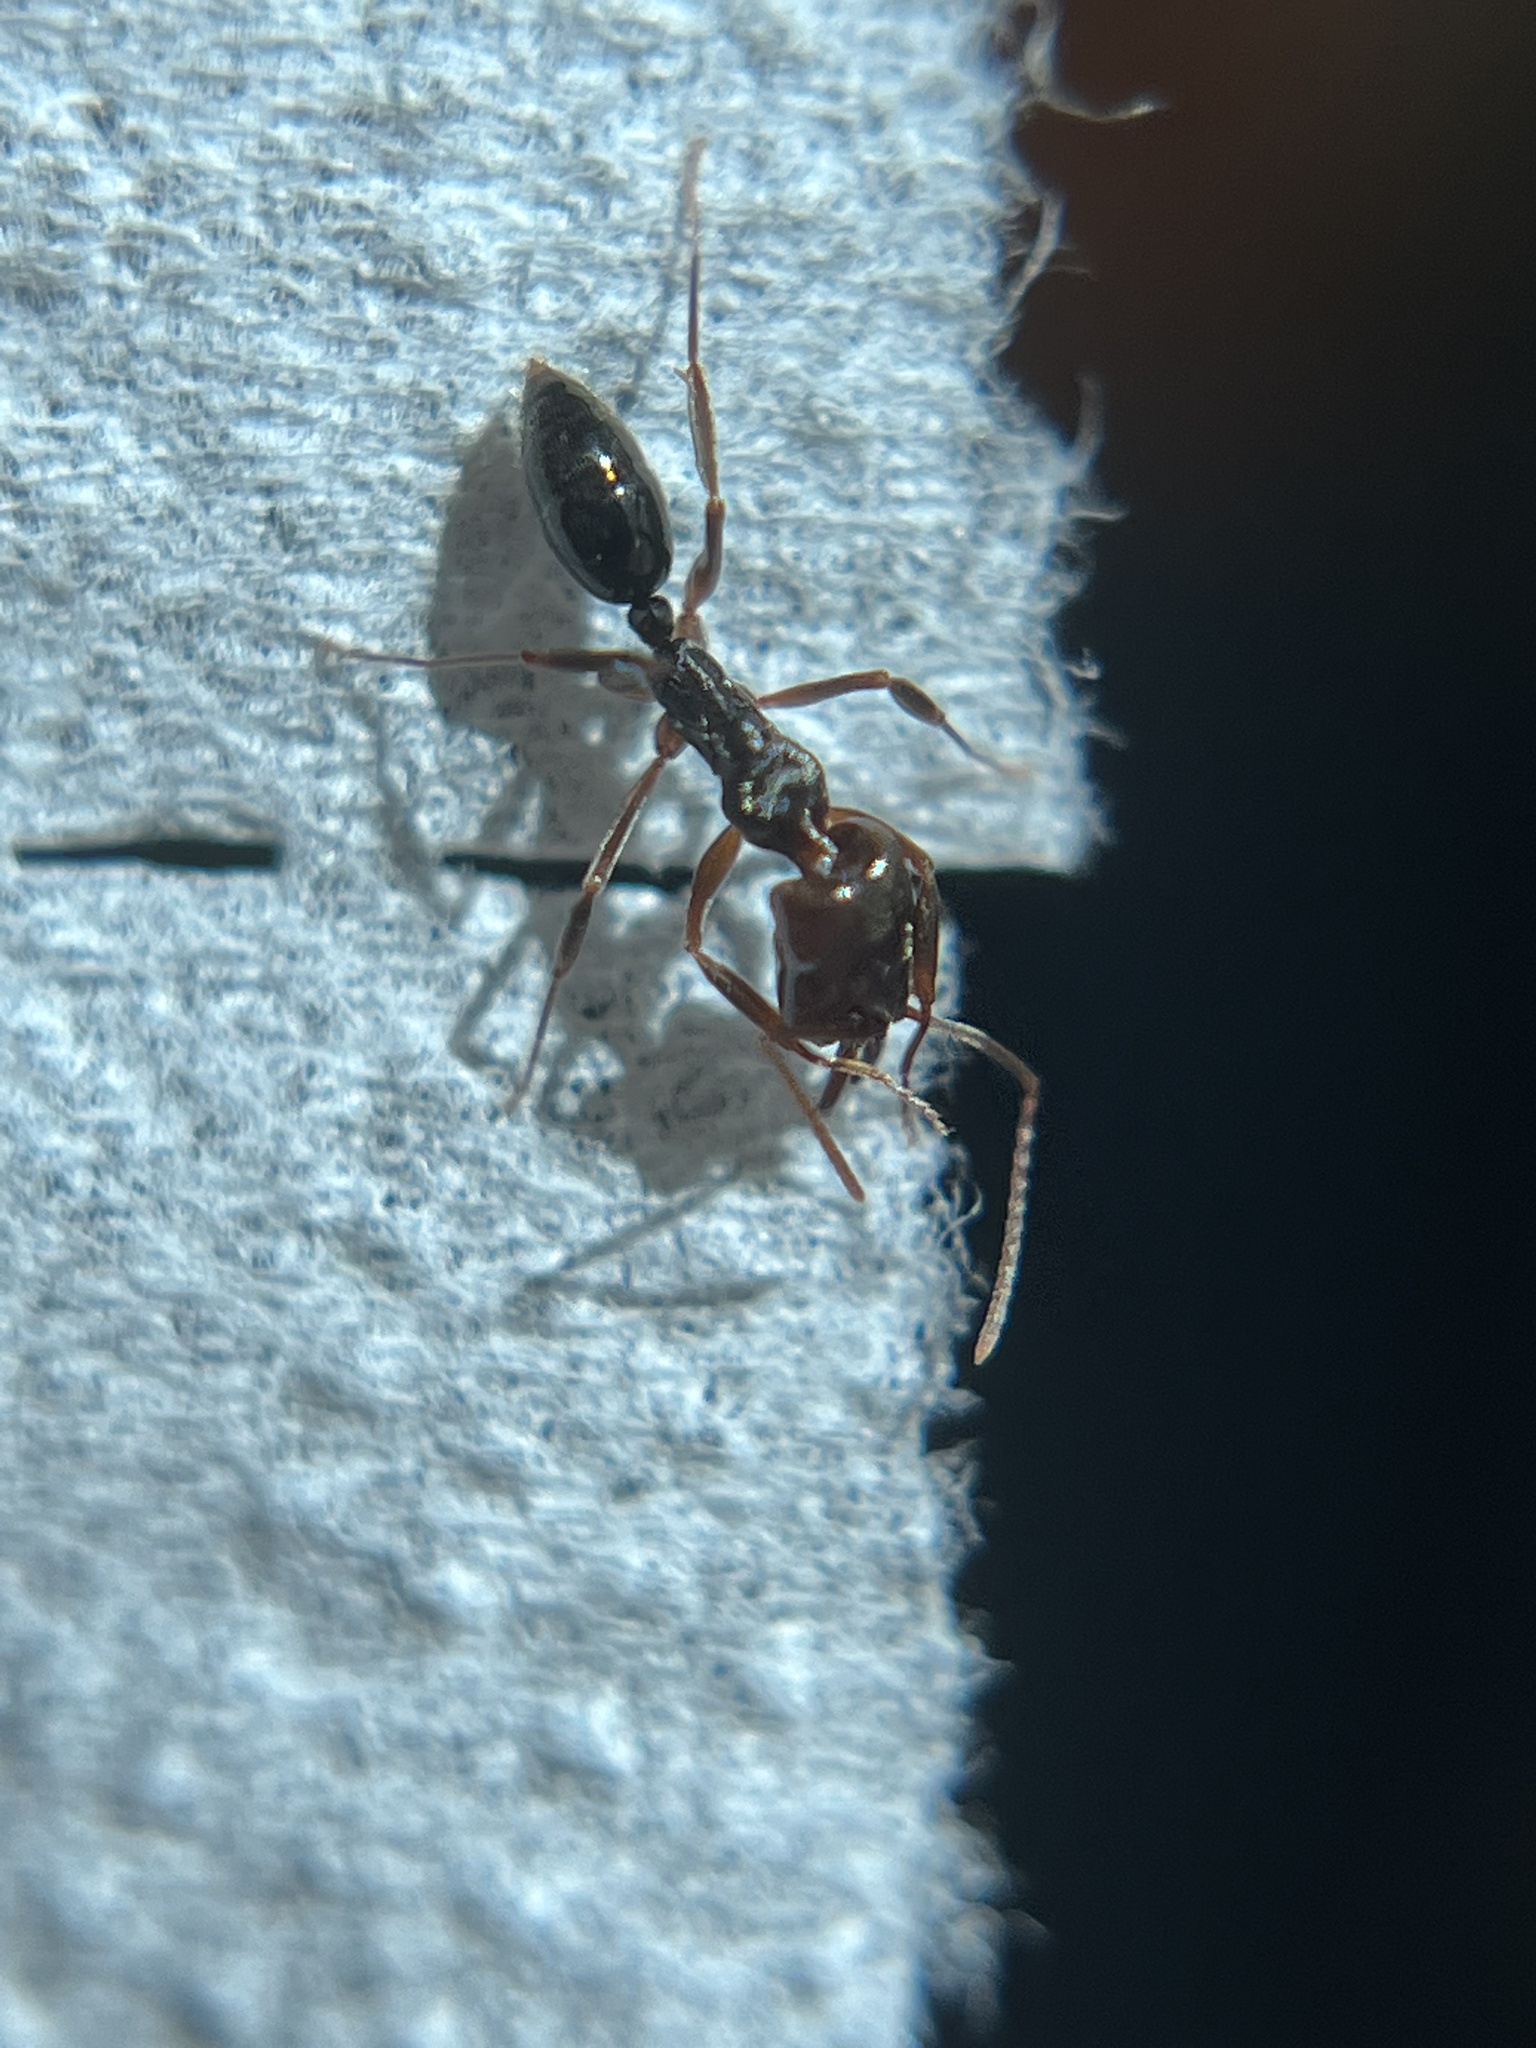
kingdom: Animalia
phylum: Arthropoda
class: Insecta
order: Hymenoptera
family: Formicidae
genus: Odontomachus
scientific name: Odontomachus ruginodis
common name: Trapjaw ant
